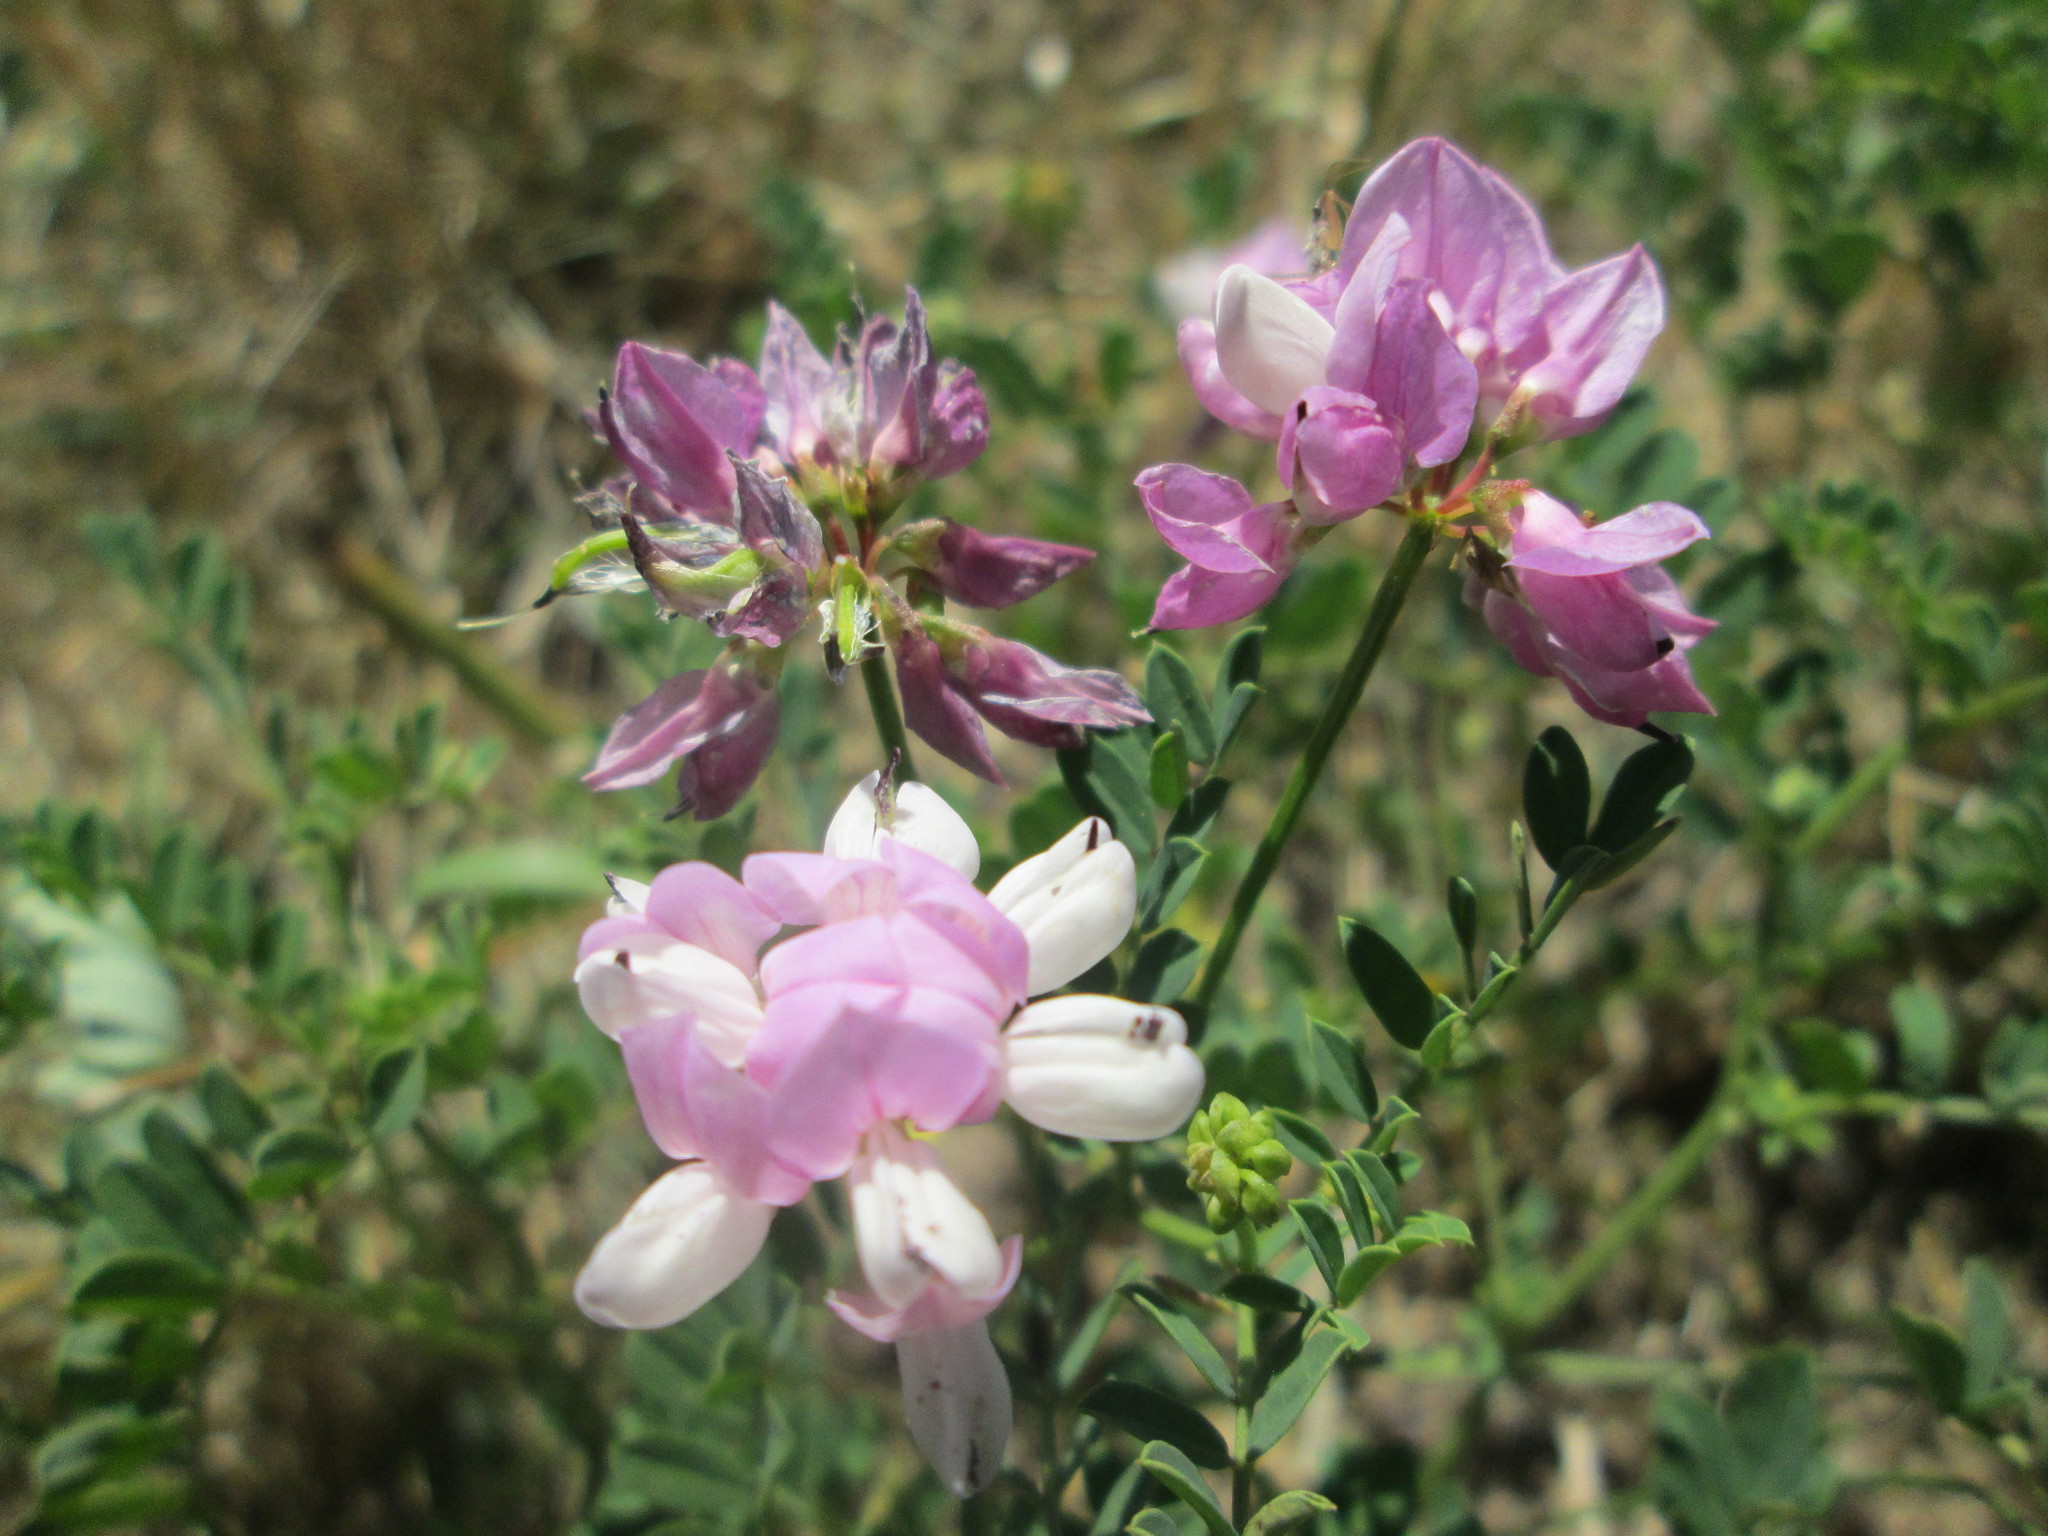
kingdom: Plantae
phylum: Tracheophyta
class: Magnoliopsida
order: Fabales
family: Fabaceae
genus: Coronilla
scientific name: Coronilla varia
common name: Crownvetch
